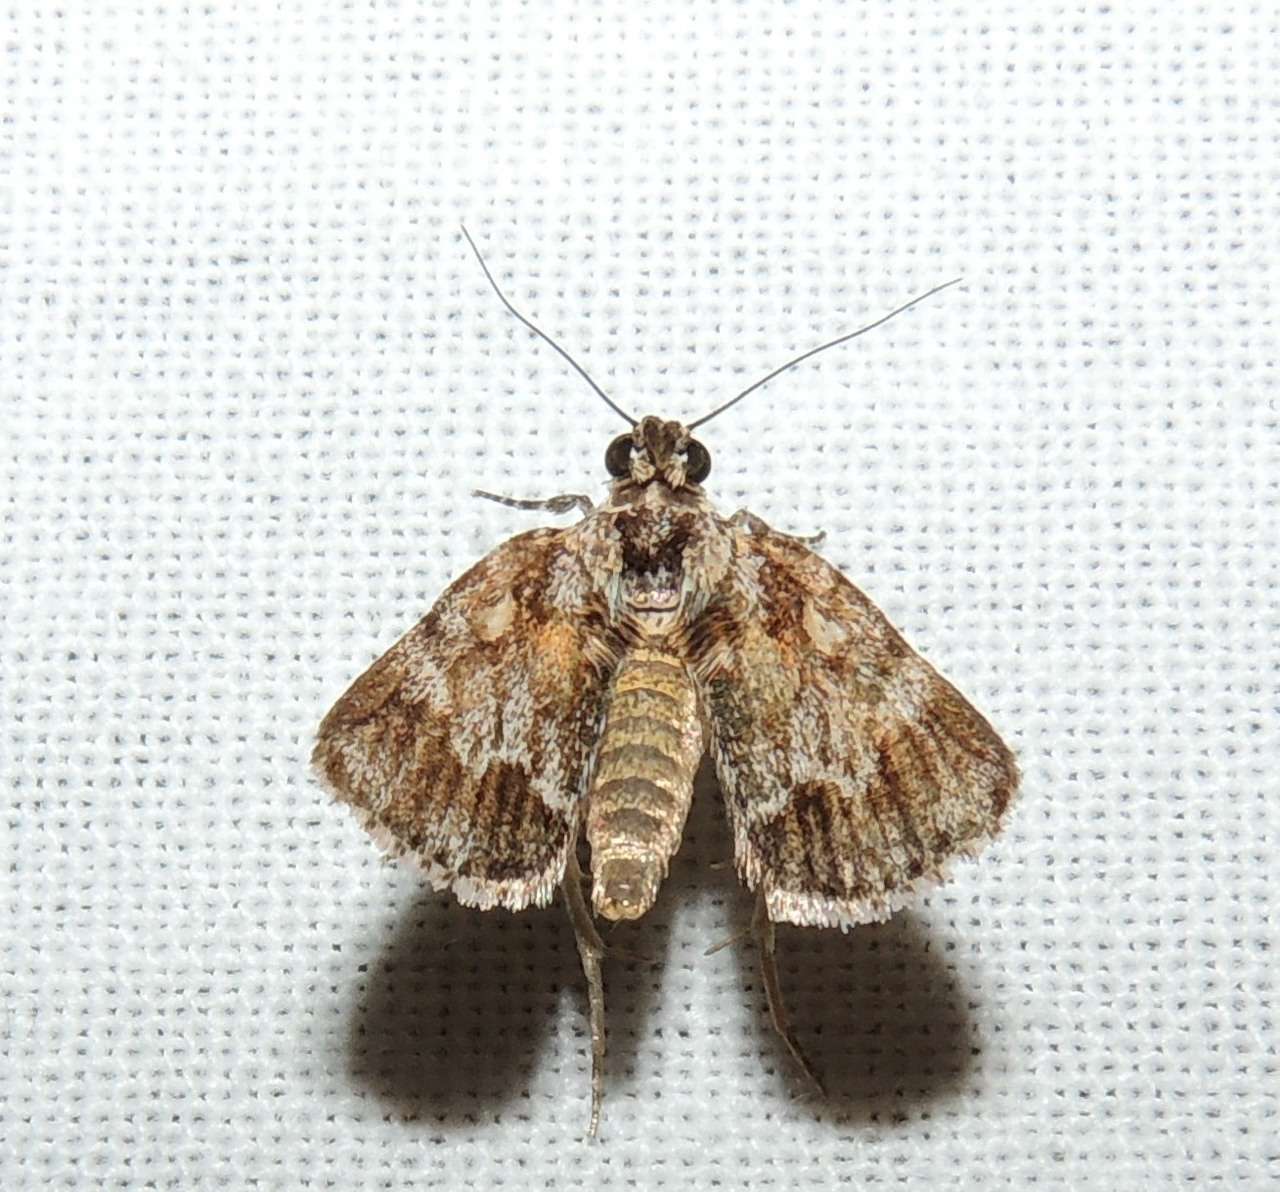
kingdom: Animalia
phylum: Arthropoda
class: Insecta
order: Lepidoptera
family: Pyralidae
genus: Spectrotrota
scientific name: Spectrotrota fimbrialis
